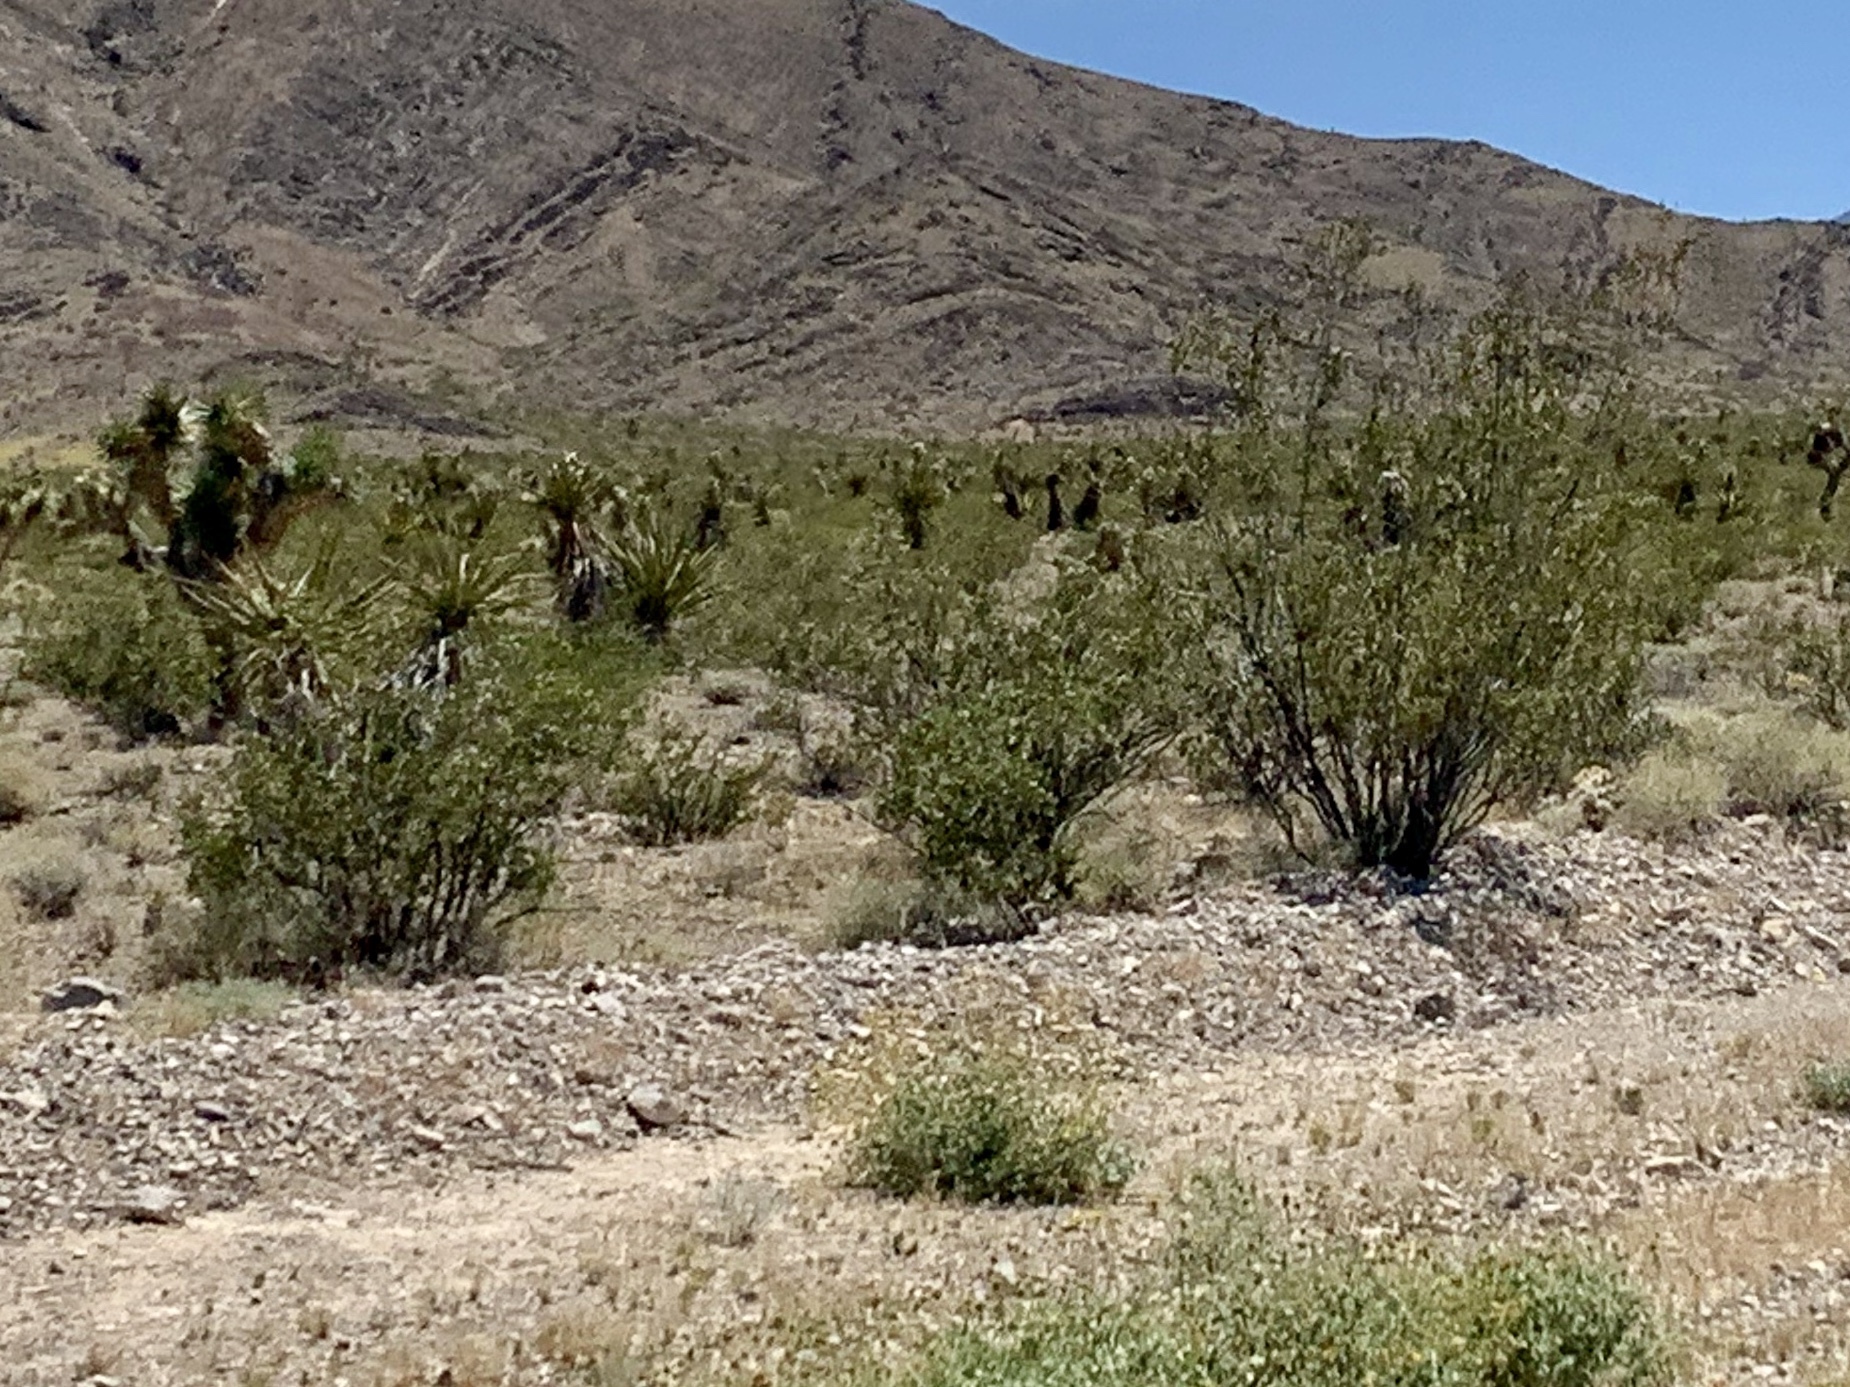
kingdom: Plantae
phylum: Tracheophyta
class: Magnoliopsida
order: Zygophyllales
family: Zygophyllaceae
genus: Larrea
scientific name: Larrea tridentata
